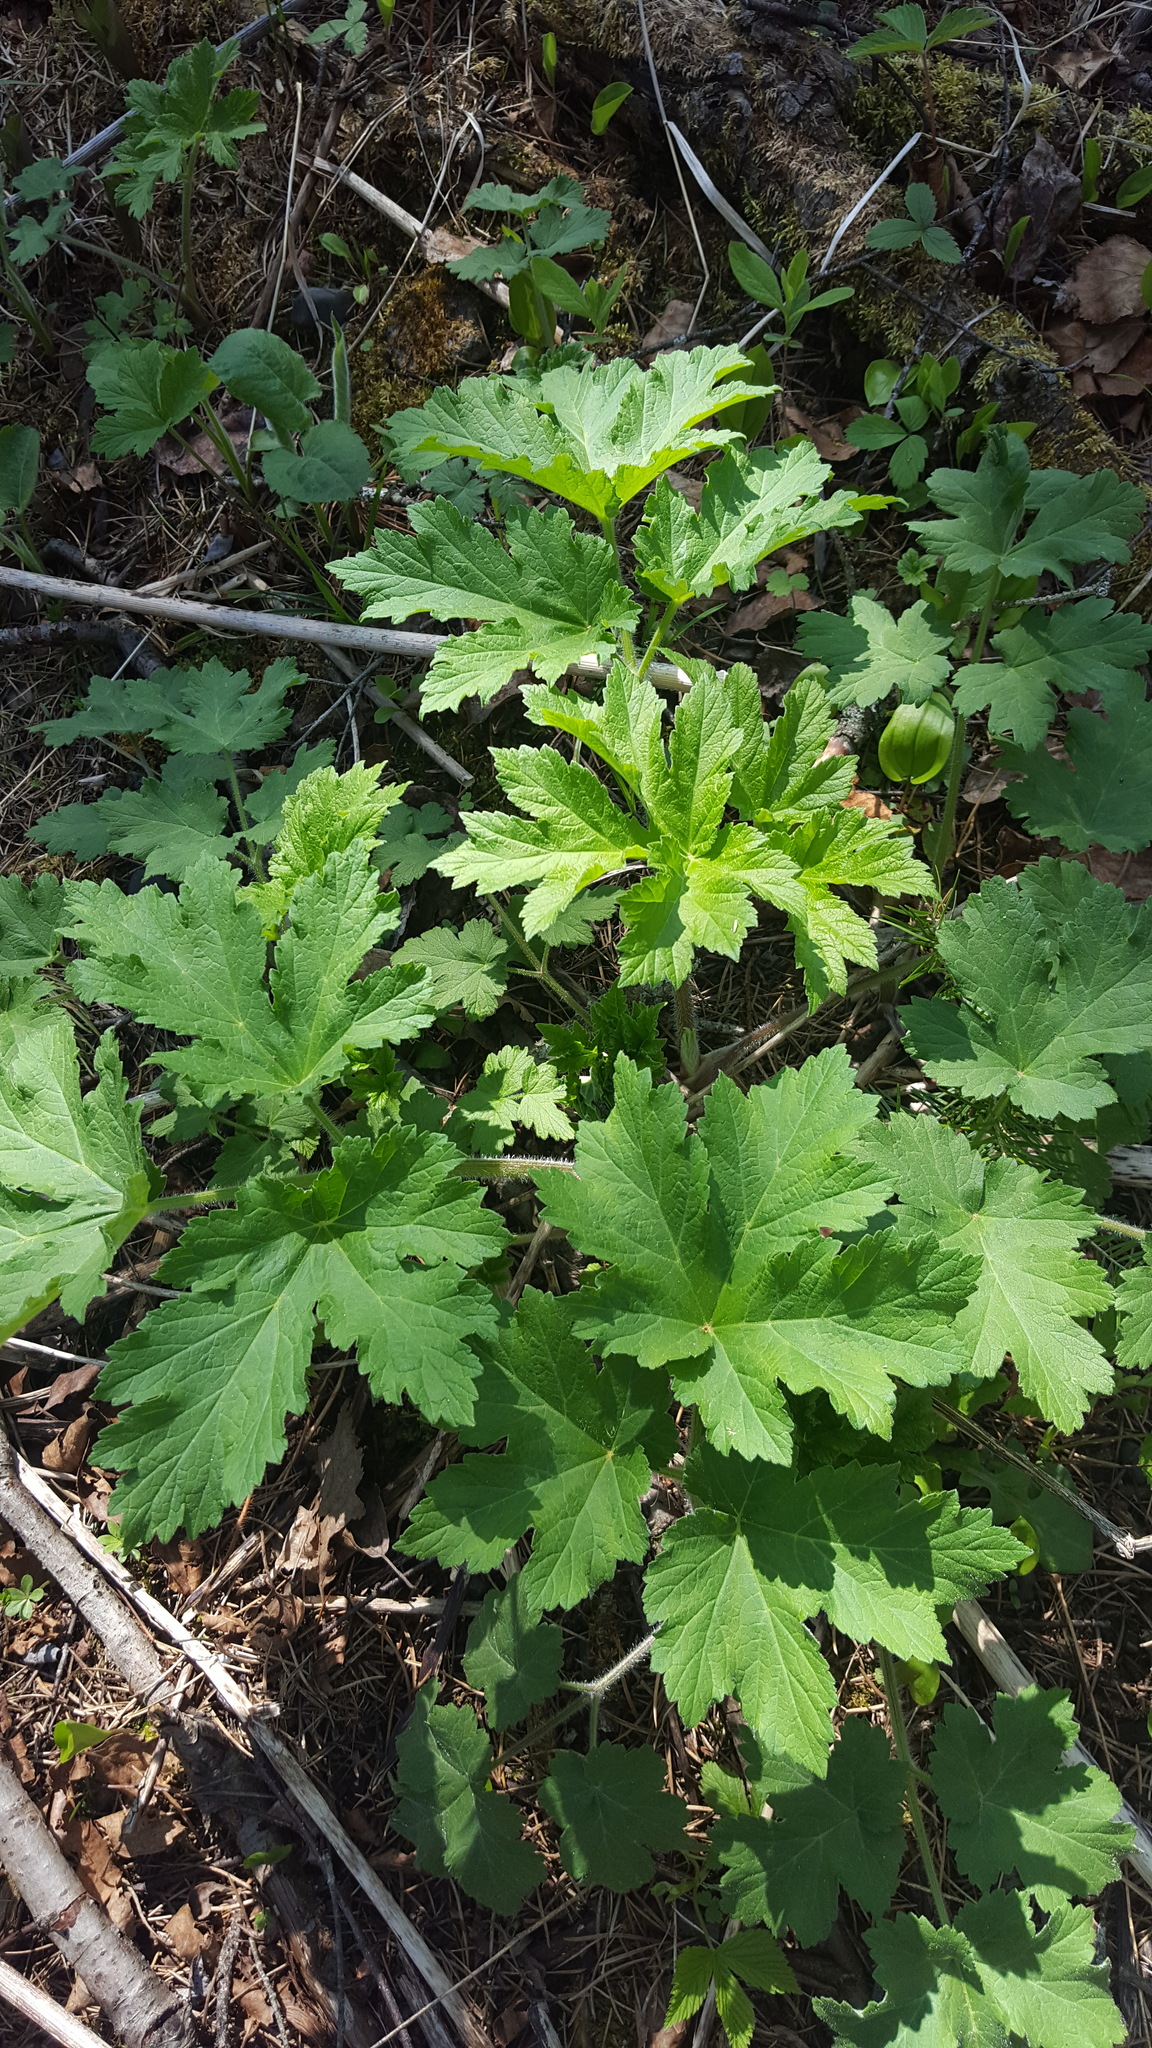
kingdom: Plantae
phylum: Tracheophyta
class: Magnoliopsida
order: Apiales
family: Apiaceae
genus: Heracleum
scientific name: Heracleum maximum
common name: American cow parsnip
